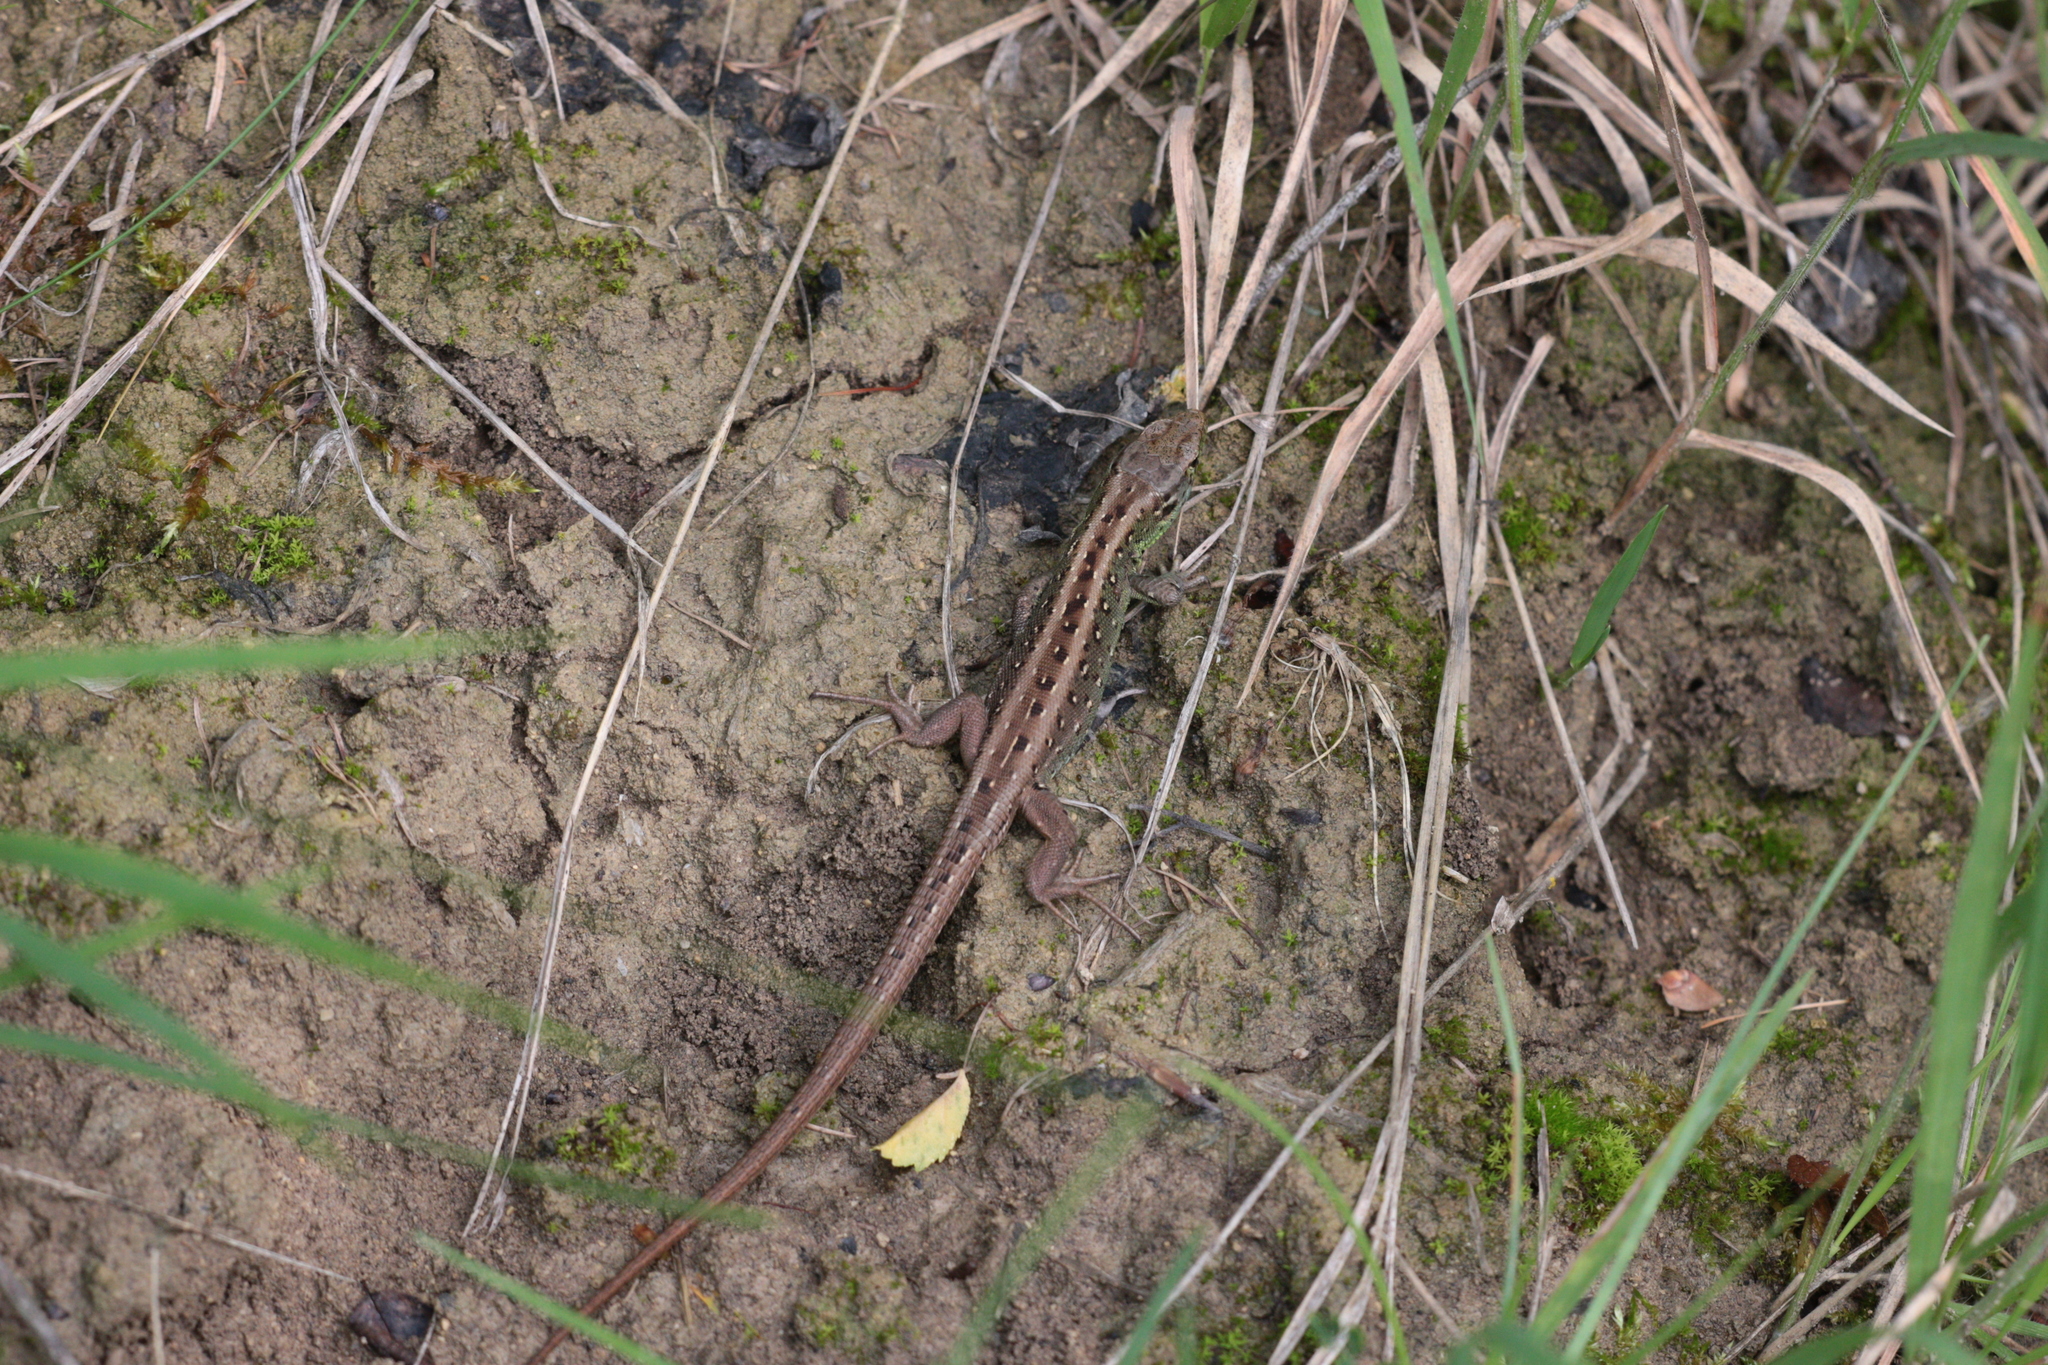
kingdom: Animalia
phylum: Chordata
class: Squamata
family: Lacertidae
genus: Lacerta
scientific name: Lacerta agilis
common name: Sand lizard
